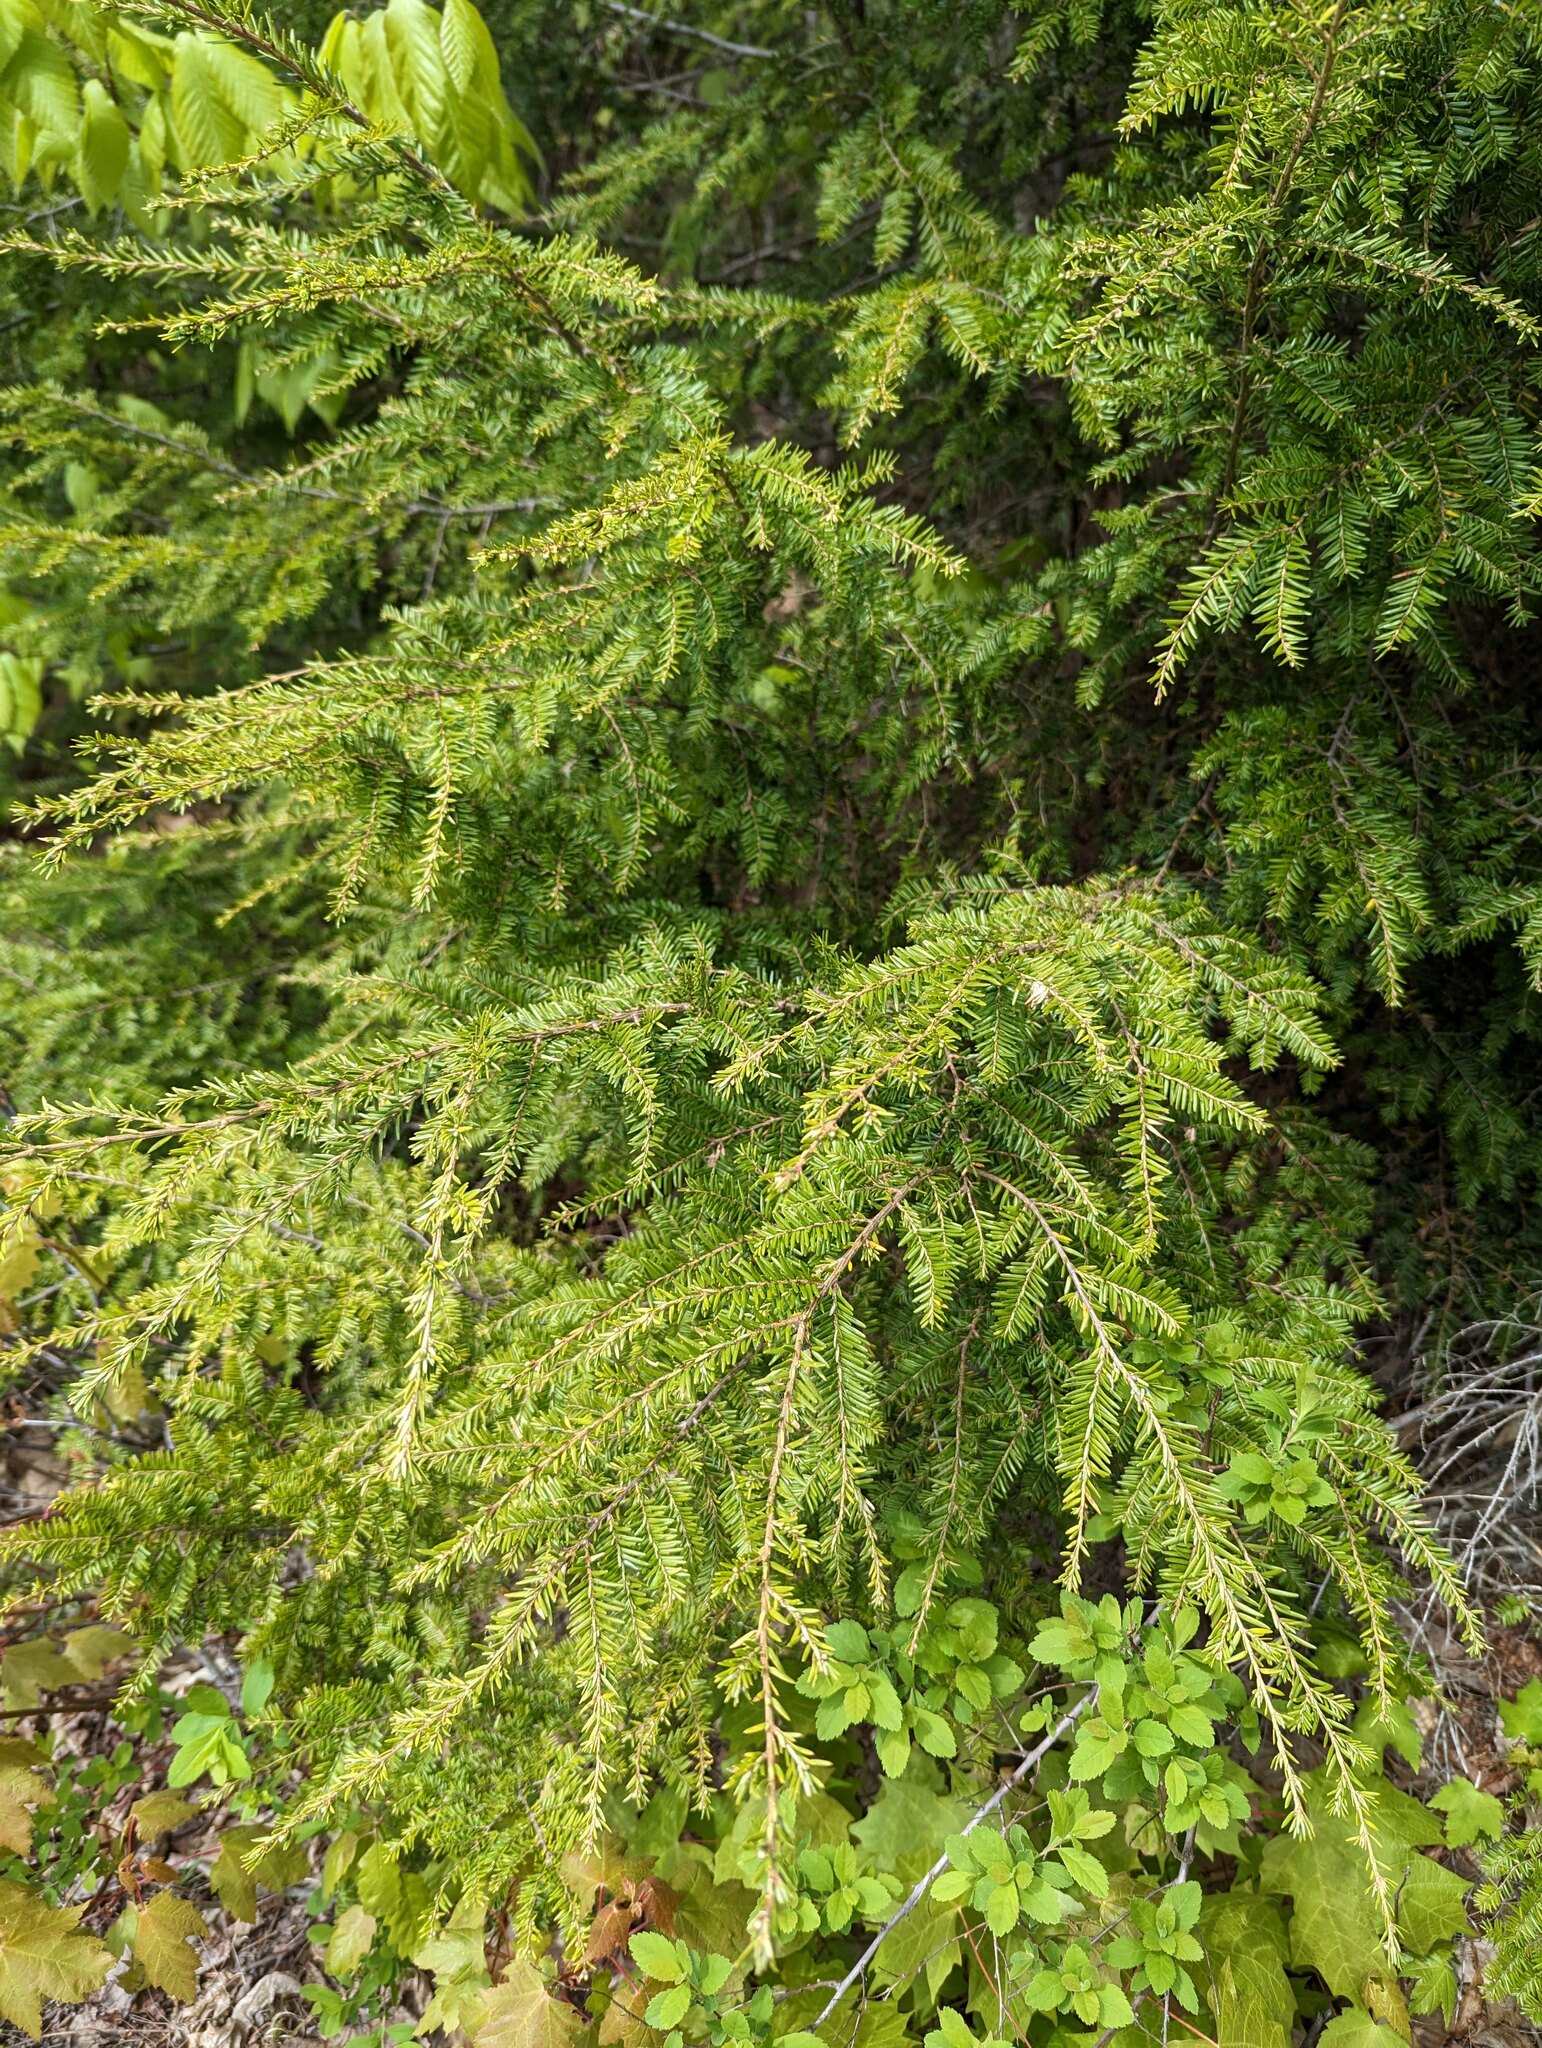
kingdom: Plantae
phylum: Tracheophyta
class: Pinopsida
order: Pinales
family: Pinaceae
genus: Tsuga
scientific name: Tsuga canadensis
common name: Eastern hemlock
